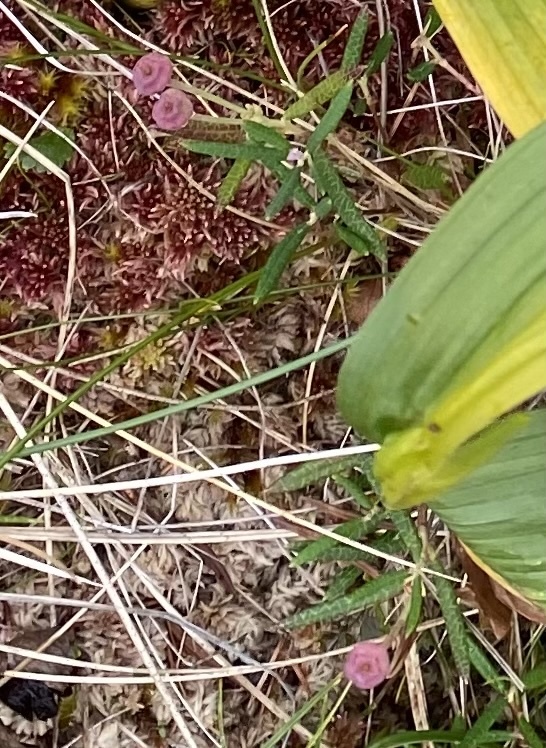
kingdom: Plantae
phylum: Tracheophyta
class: Magnoliopsida
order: Ericales
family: Ericaceae
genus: Andromeda
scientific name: Andromeda polifolia
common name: Bog-rosemary
